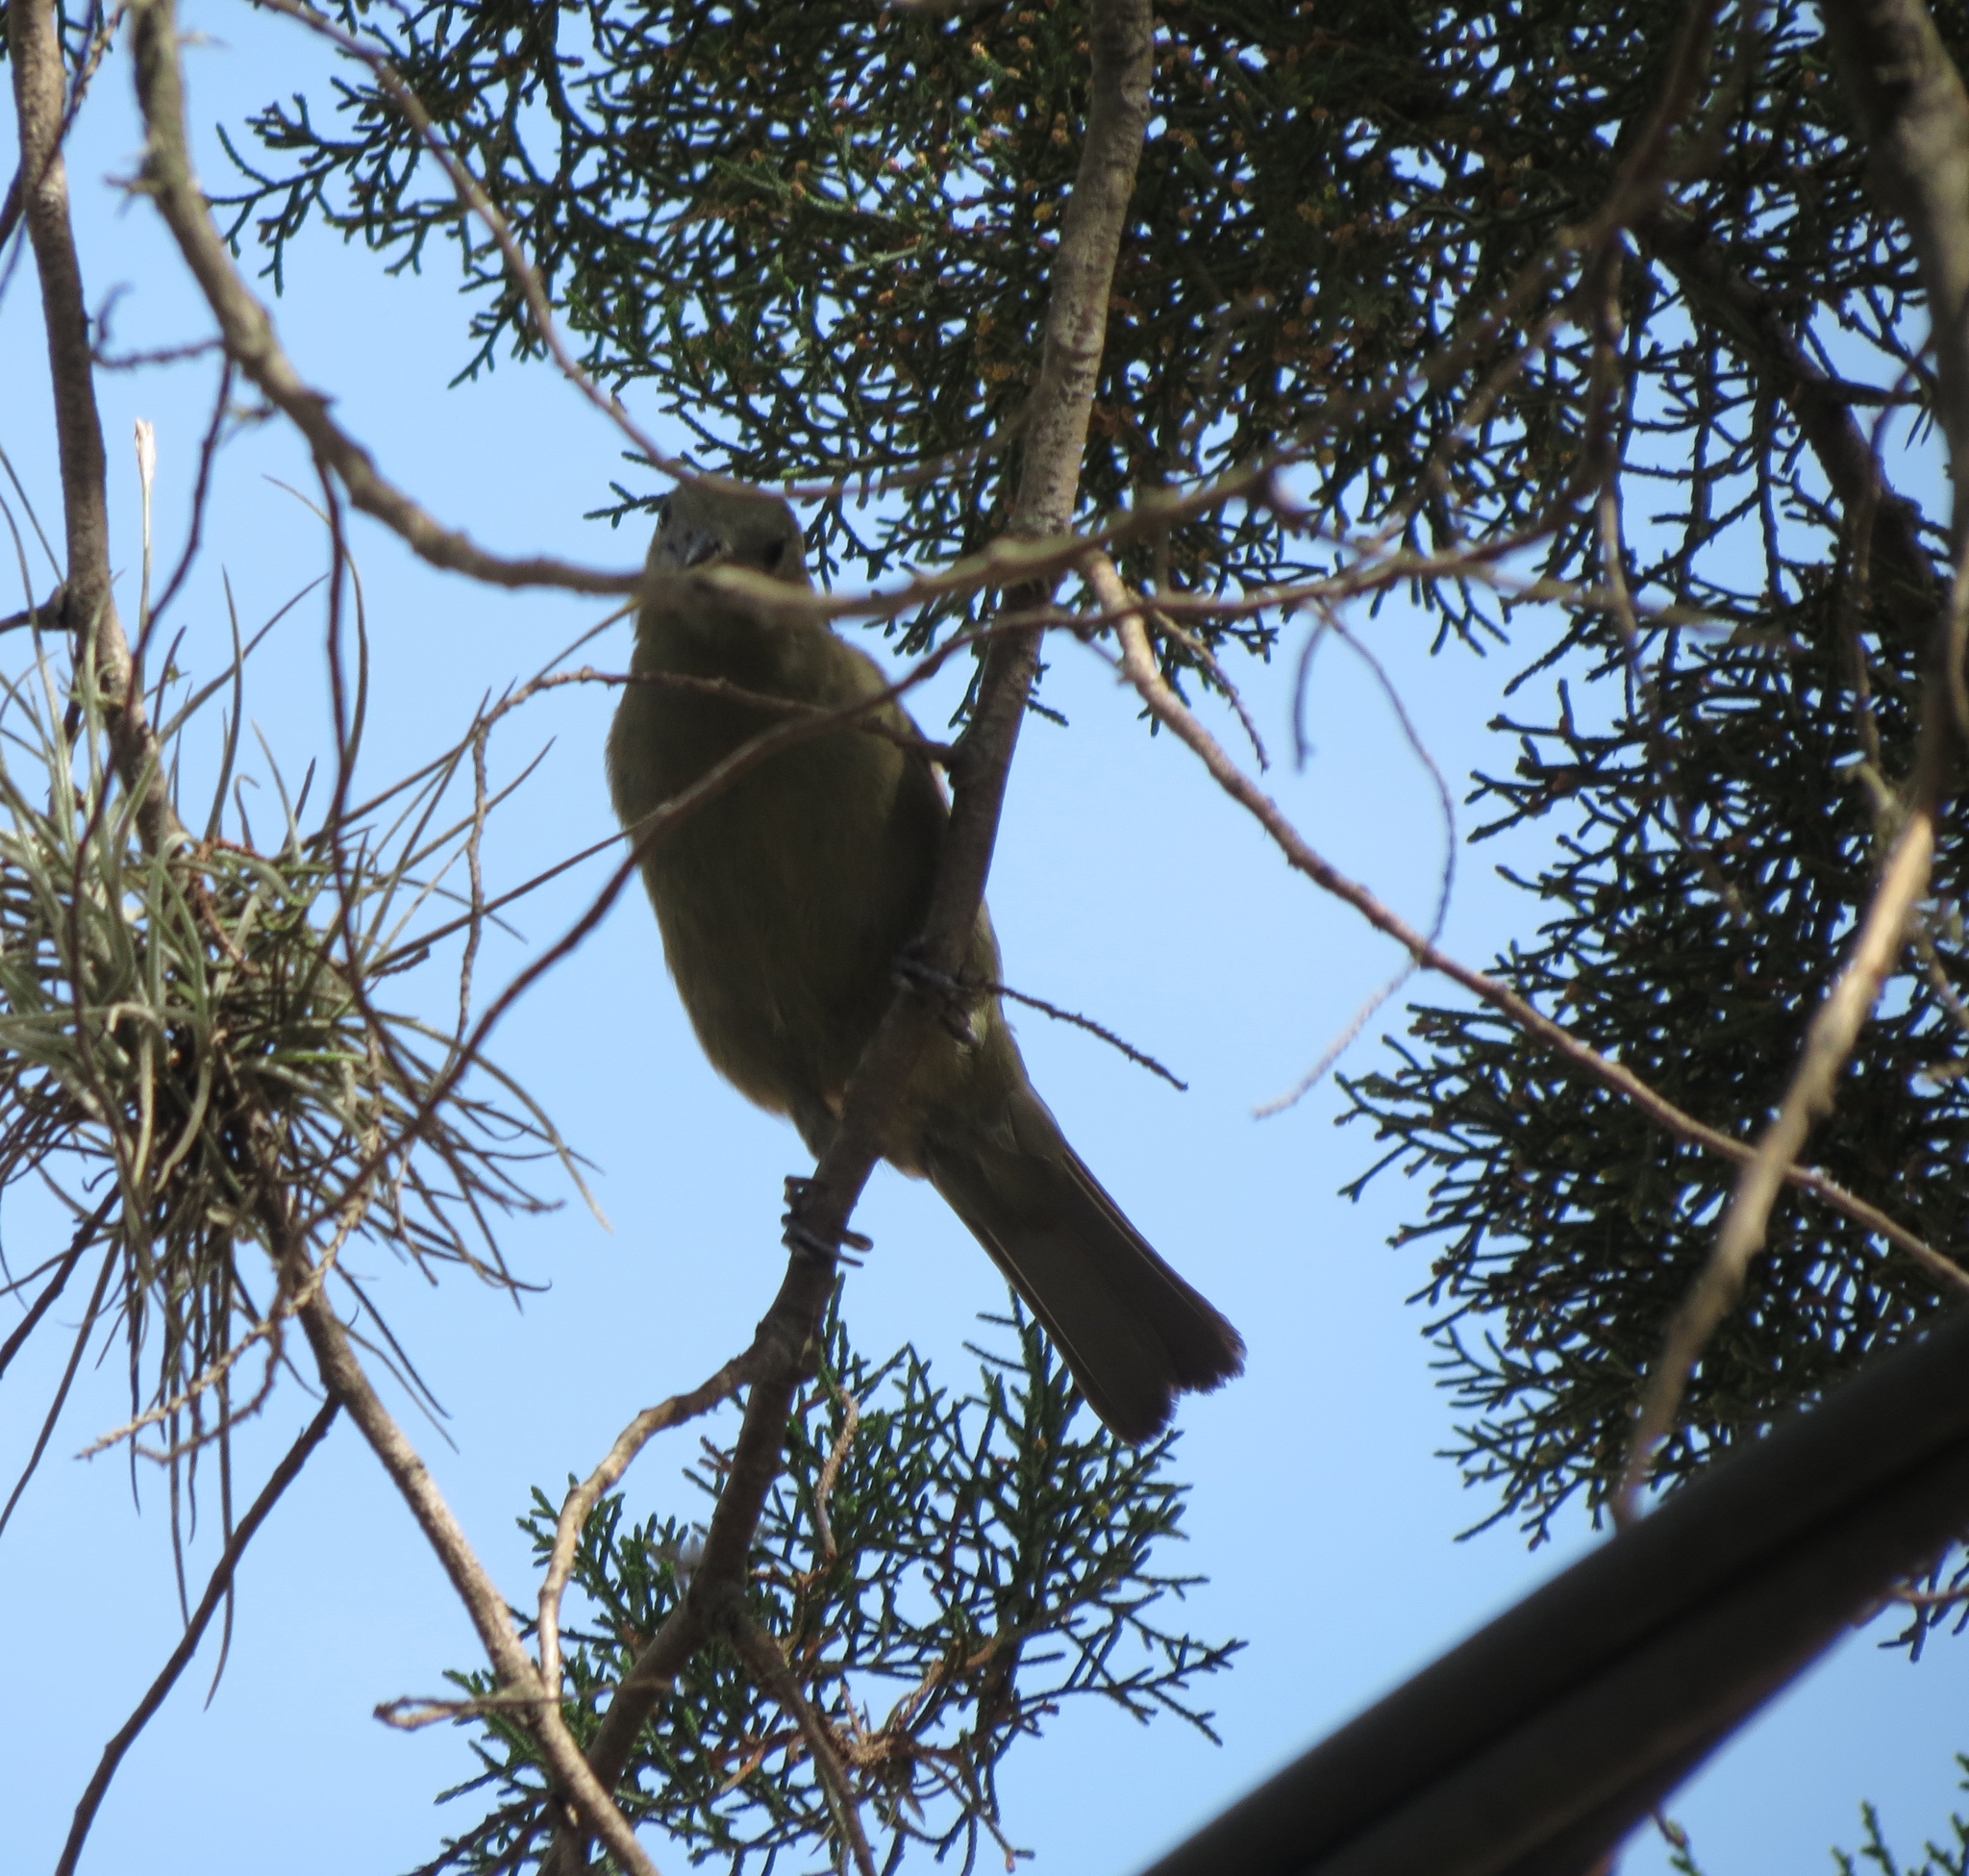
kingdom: Animalia
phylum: Chordata
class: Aves
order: Passeriformes
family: Thraupidae
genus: Thraupis
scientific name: Thraupis palmarum
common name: Palm tanager
